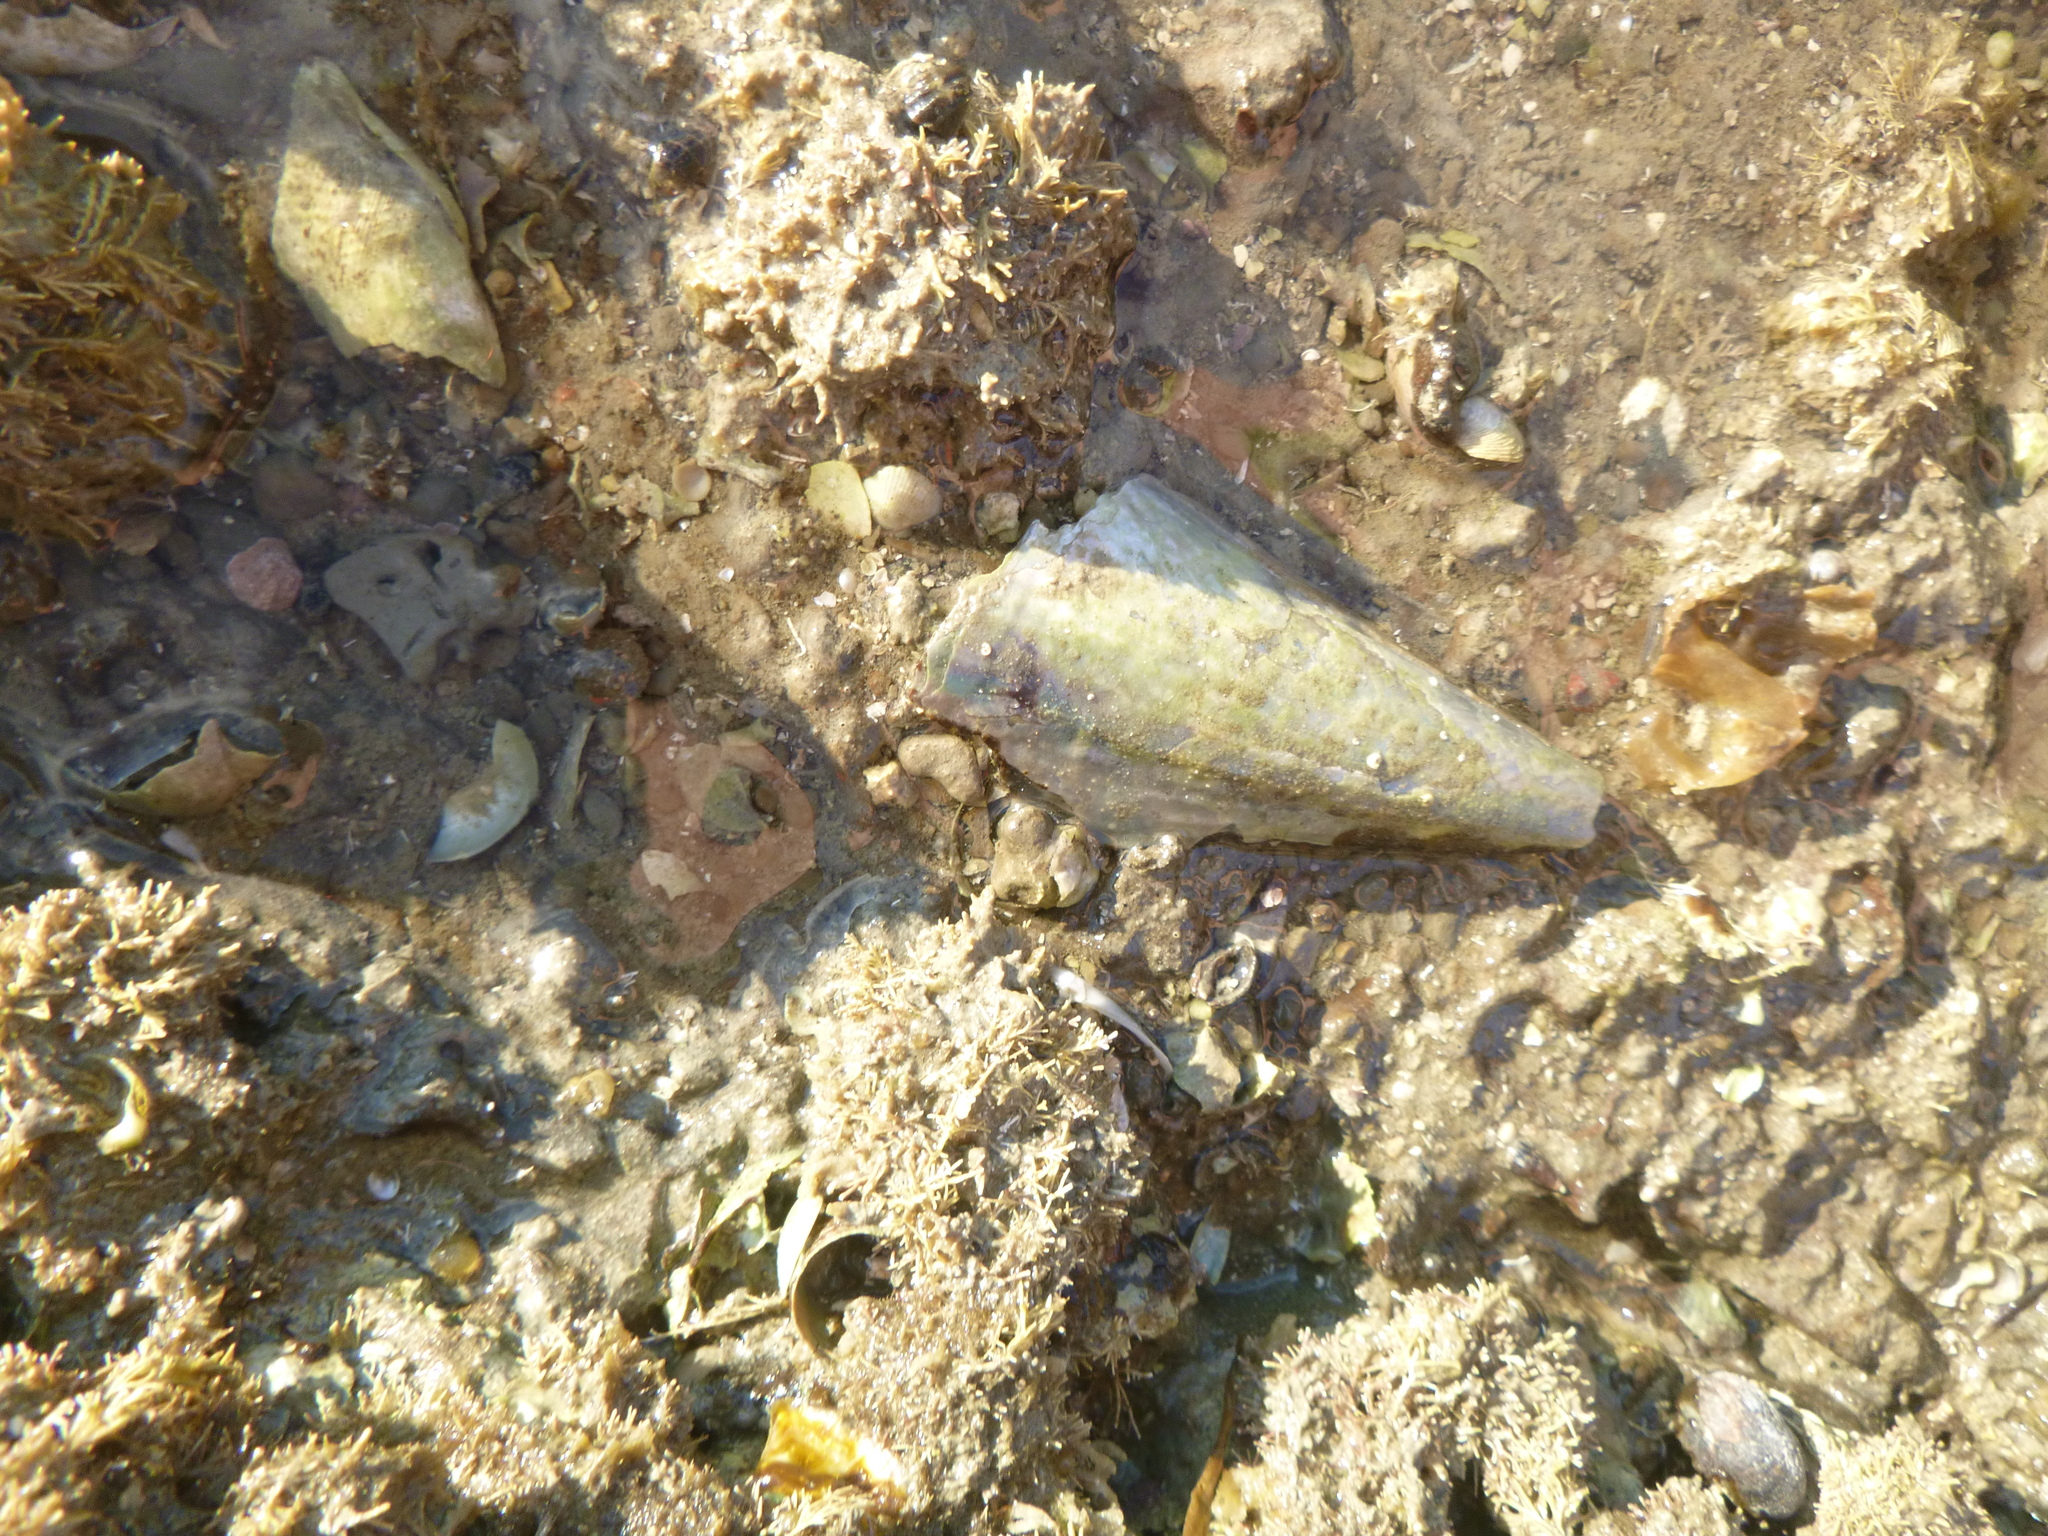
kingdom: Animalia
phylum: Mollusca
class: Bivalvia
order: Ostreida
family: Pinnidae
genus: Atrina
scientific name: Atrina zelandica
